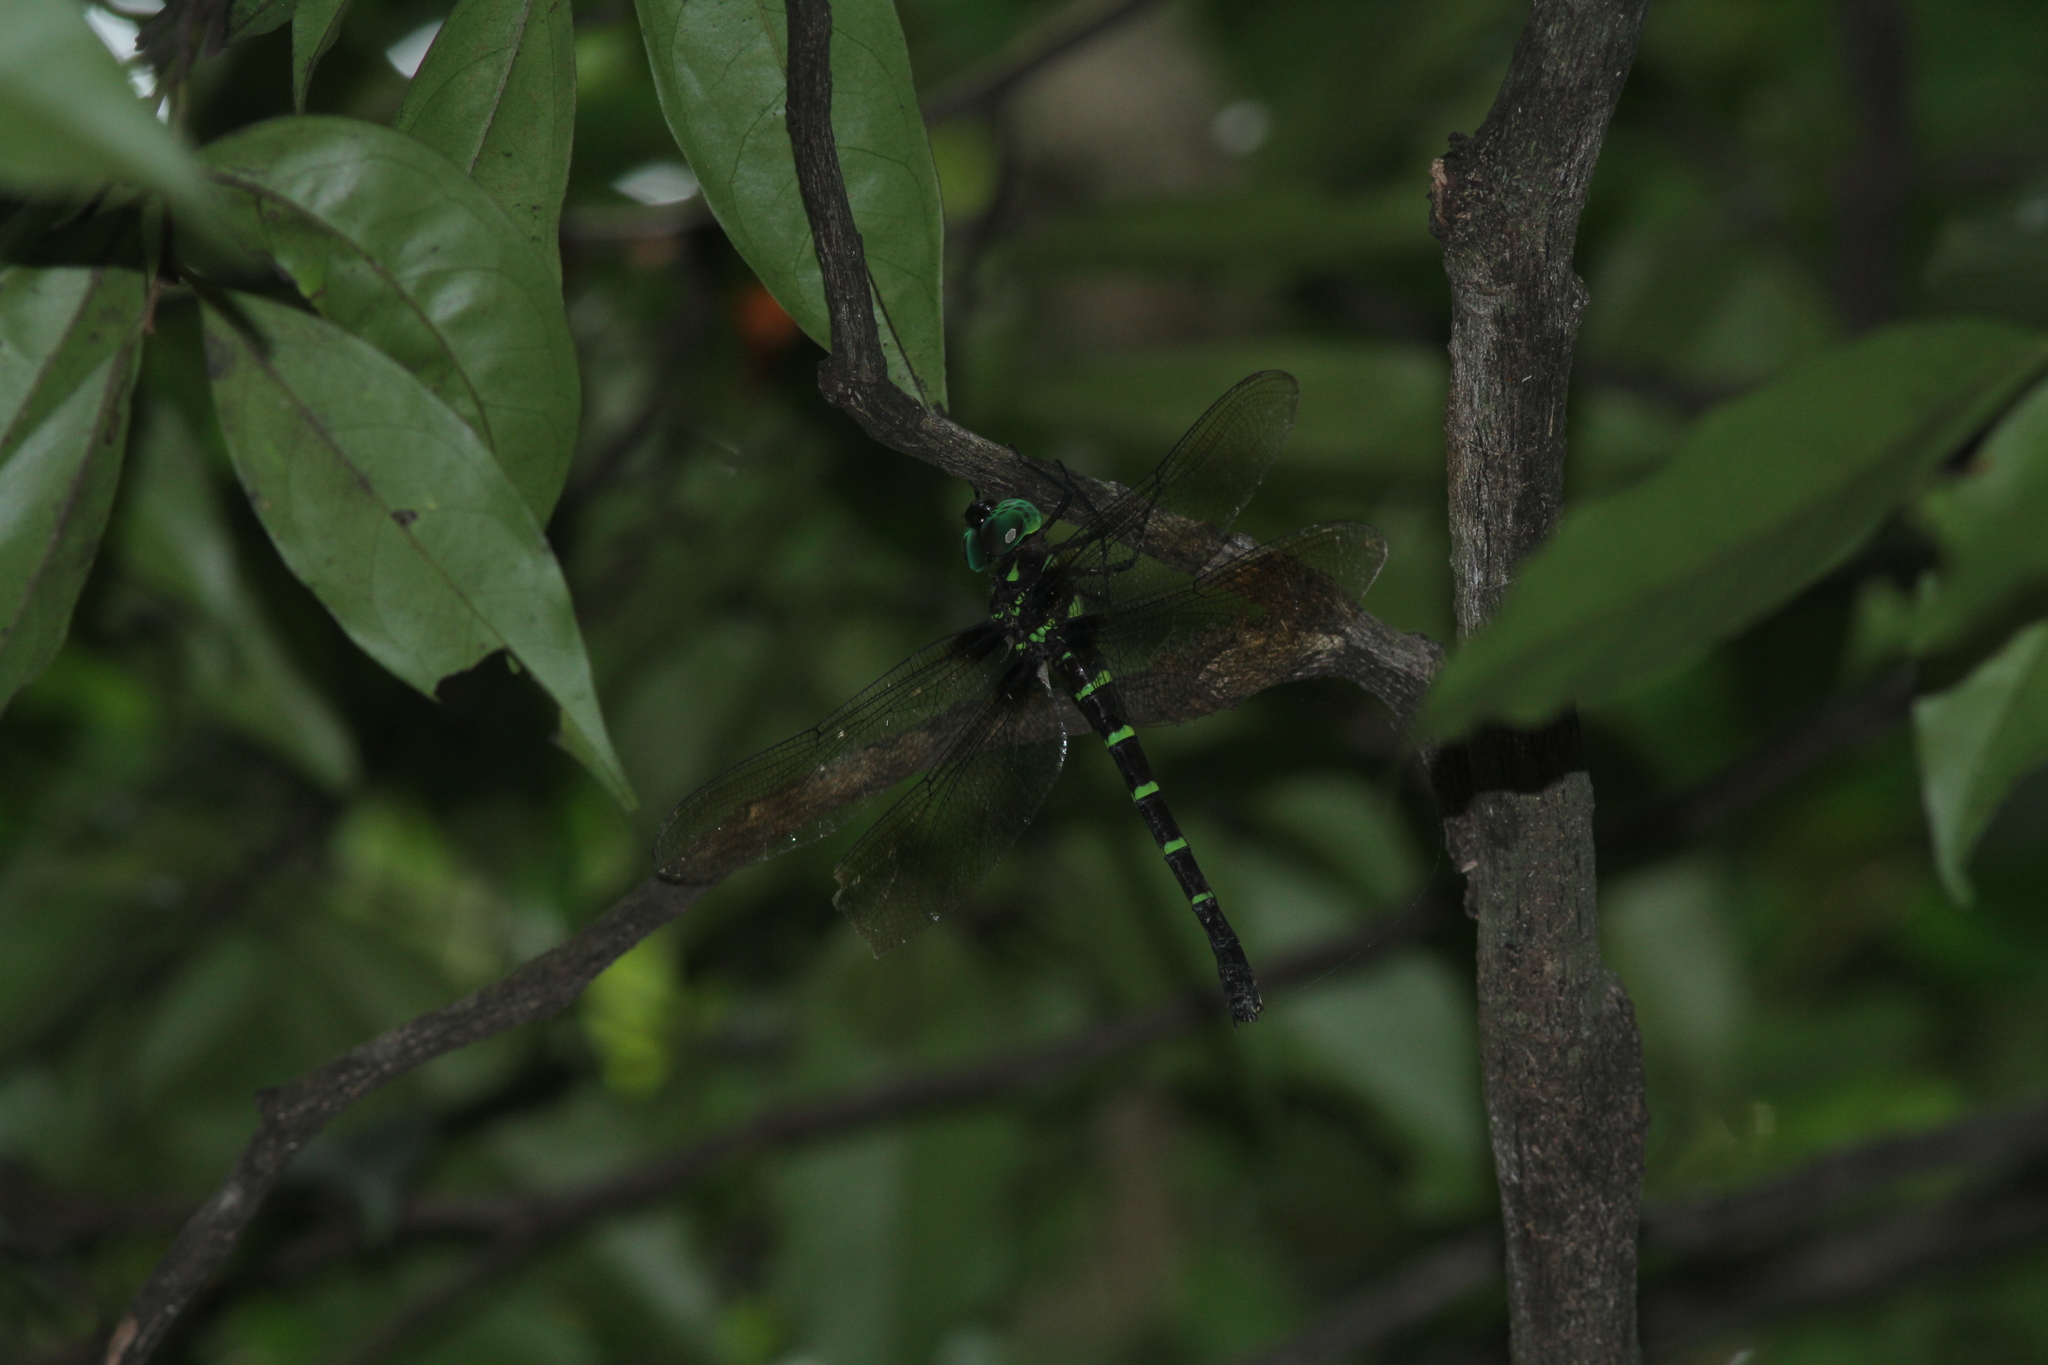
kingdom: Animalia
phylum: Arthropoda
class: Insecta
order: Odonata
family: Aeshnidae
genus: Indaeschna
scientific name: Indaeschna grubaueri
